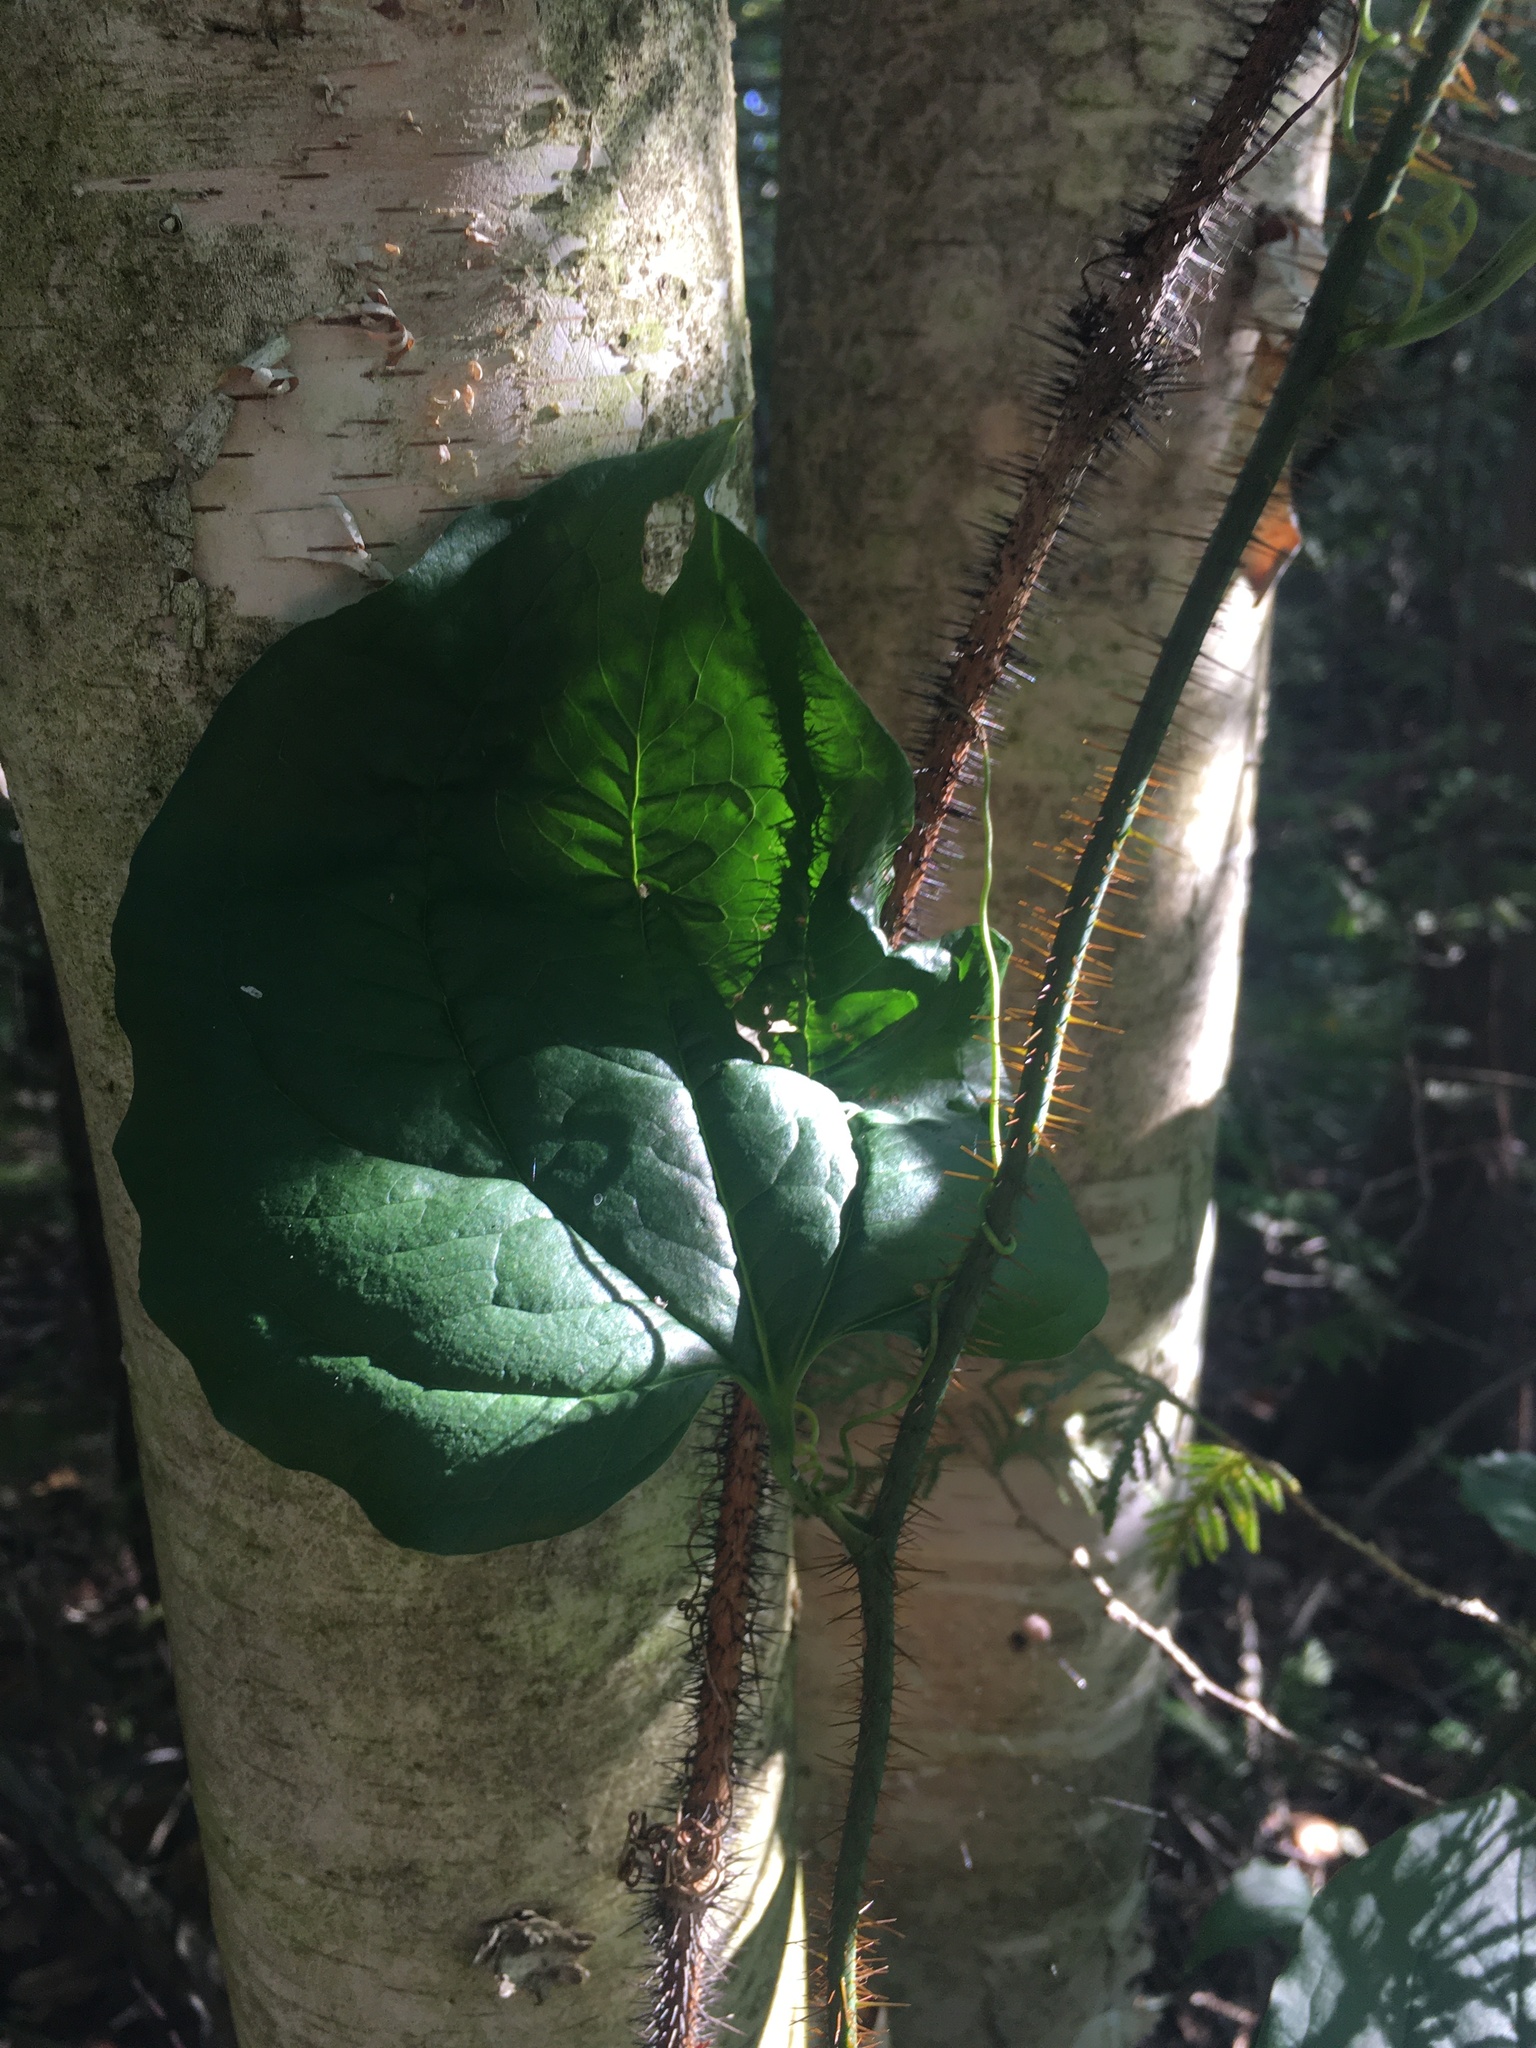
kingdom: Plantae
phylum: Tracheophyta
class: Liliopsida
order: Liliales
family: Smilacaceae
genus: Smilax
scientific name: Smilax tamnoides
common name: Hellfetter
